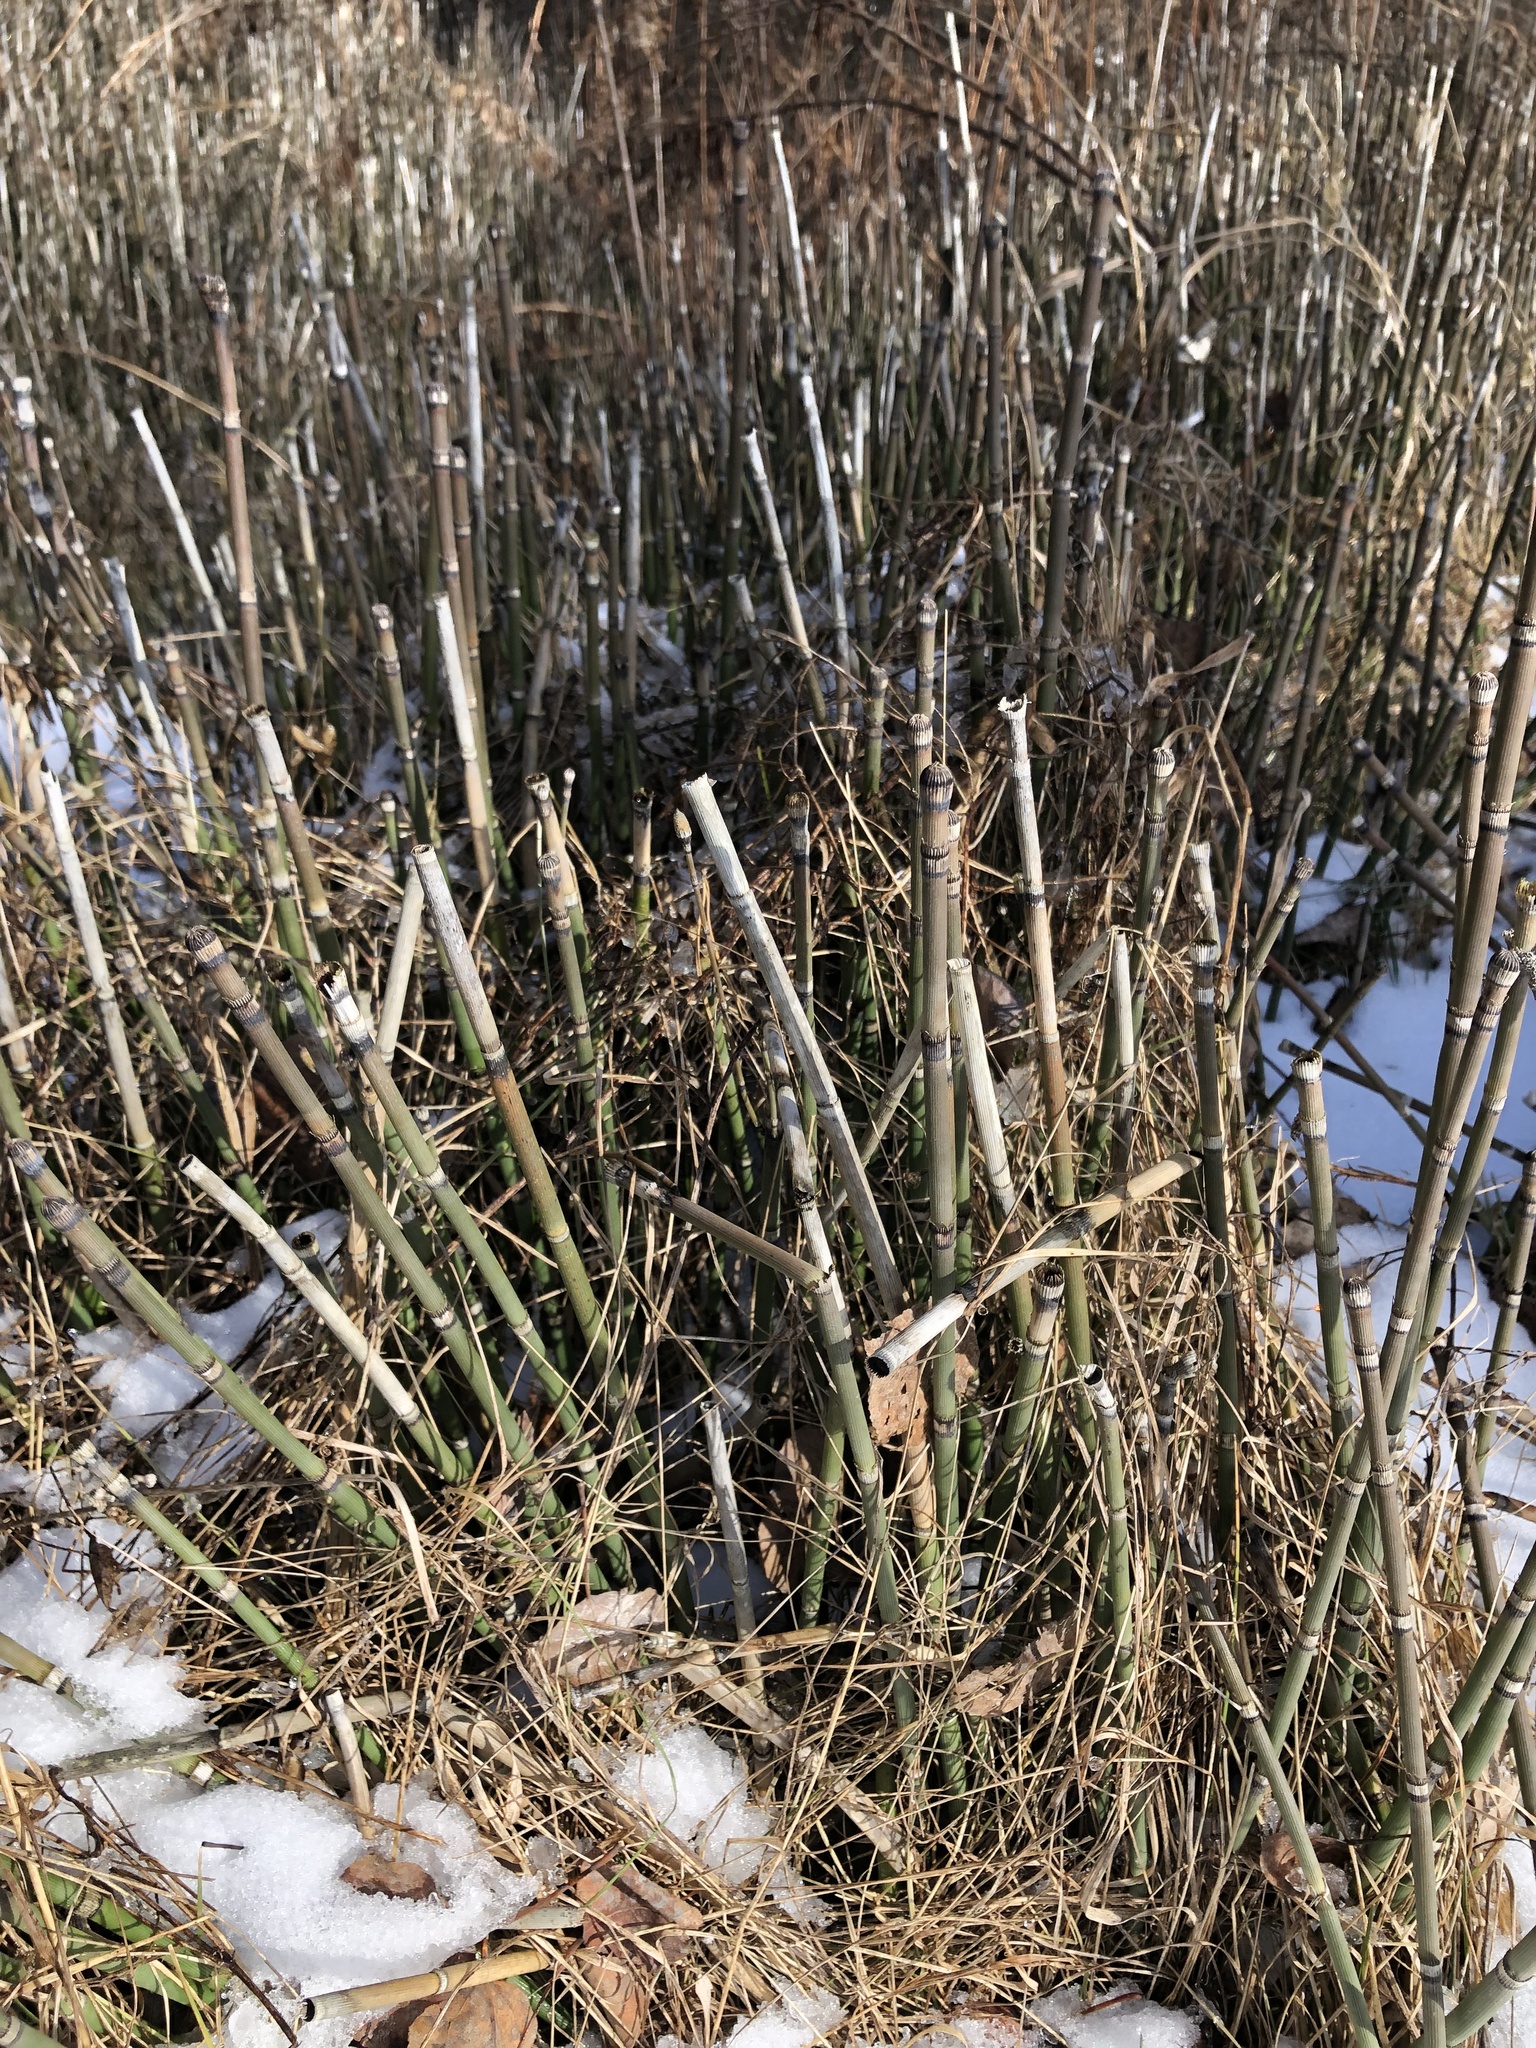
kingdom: Plantae
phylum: Tracheophyta
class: Polypodiopsida
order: Equisetales
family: Equisetaceae
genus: Equisetum
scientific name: Equisetum praealtum
